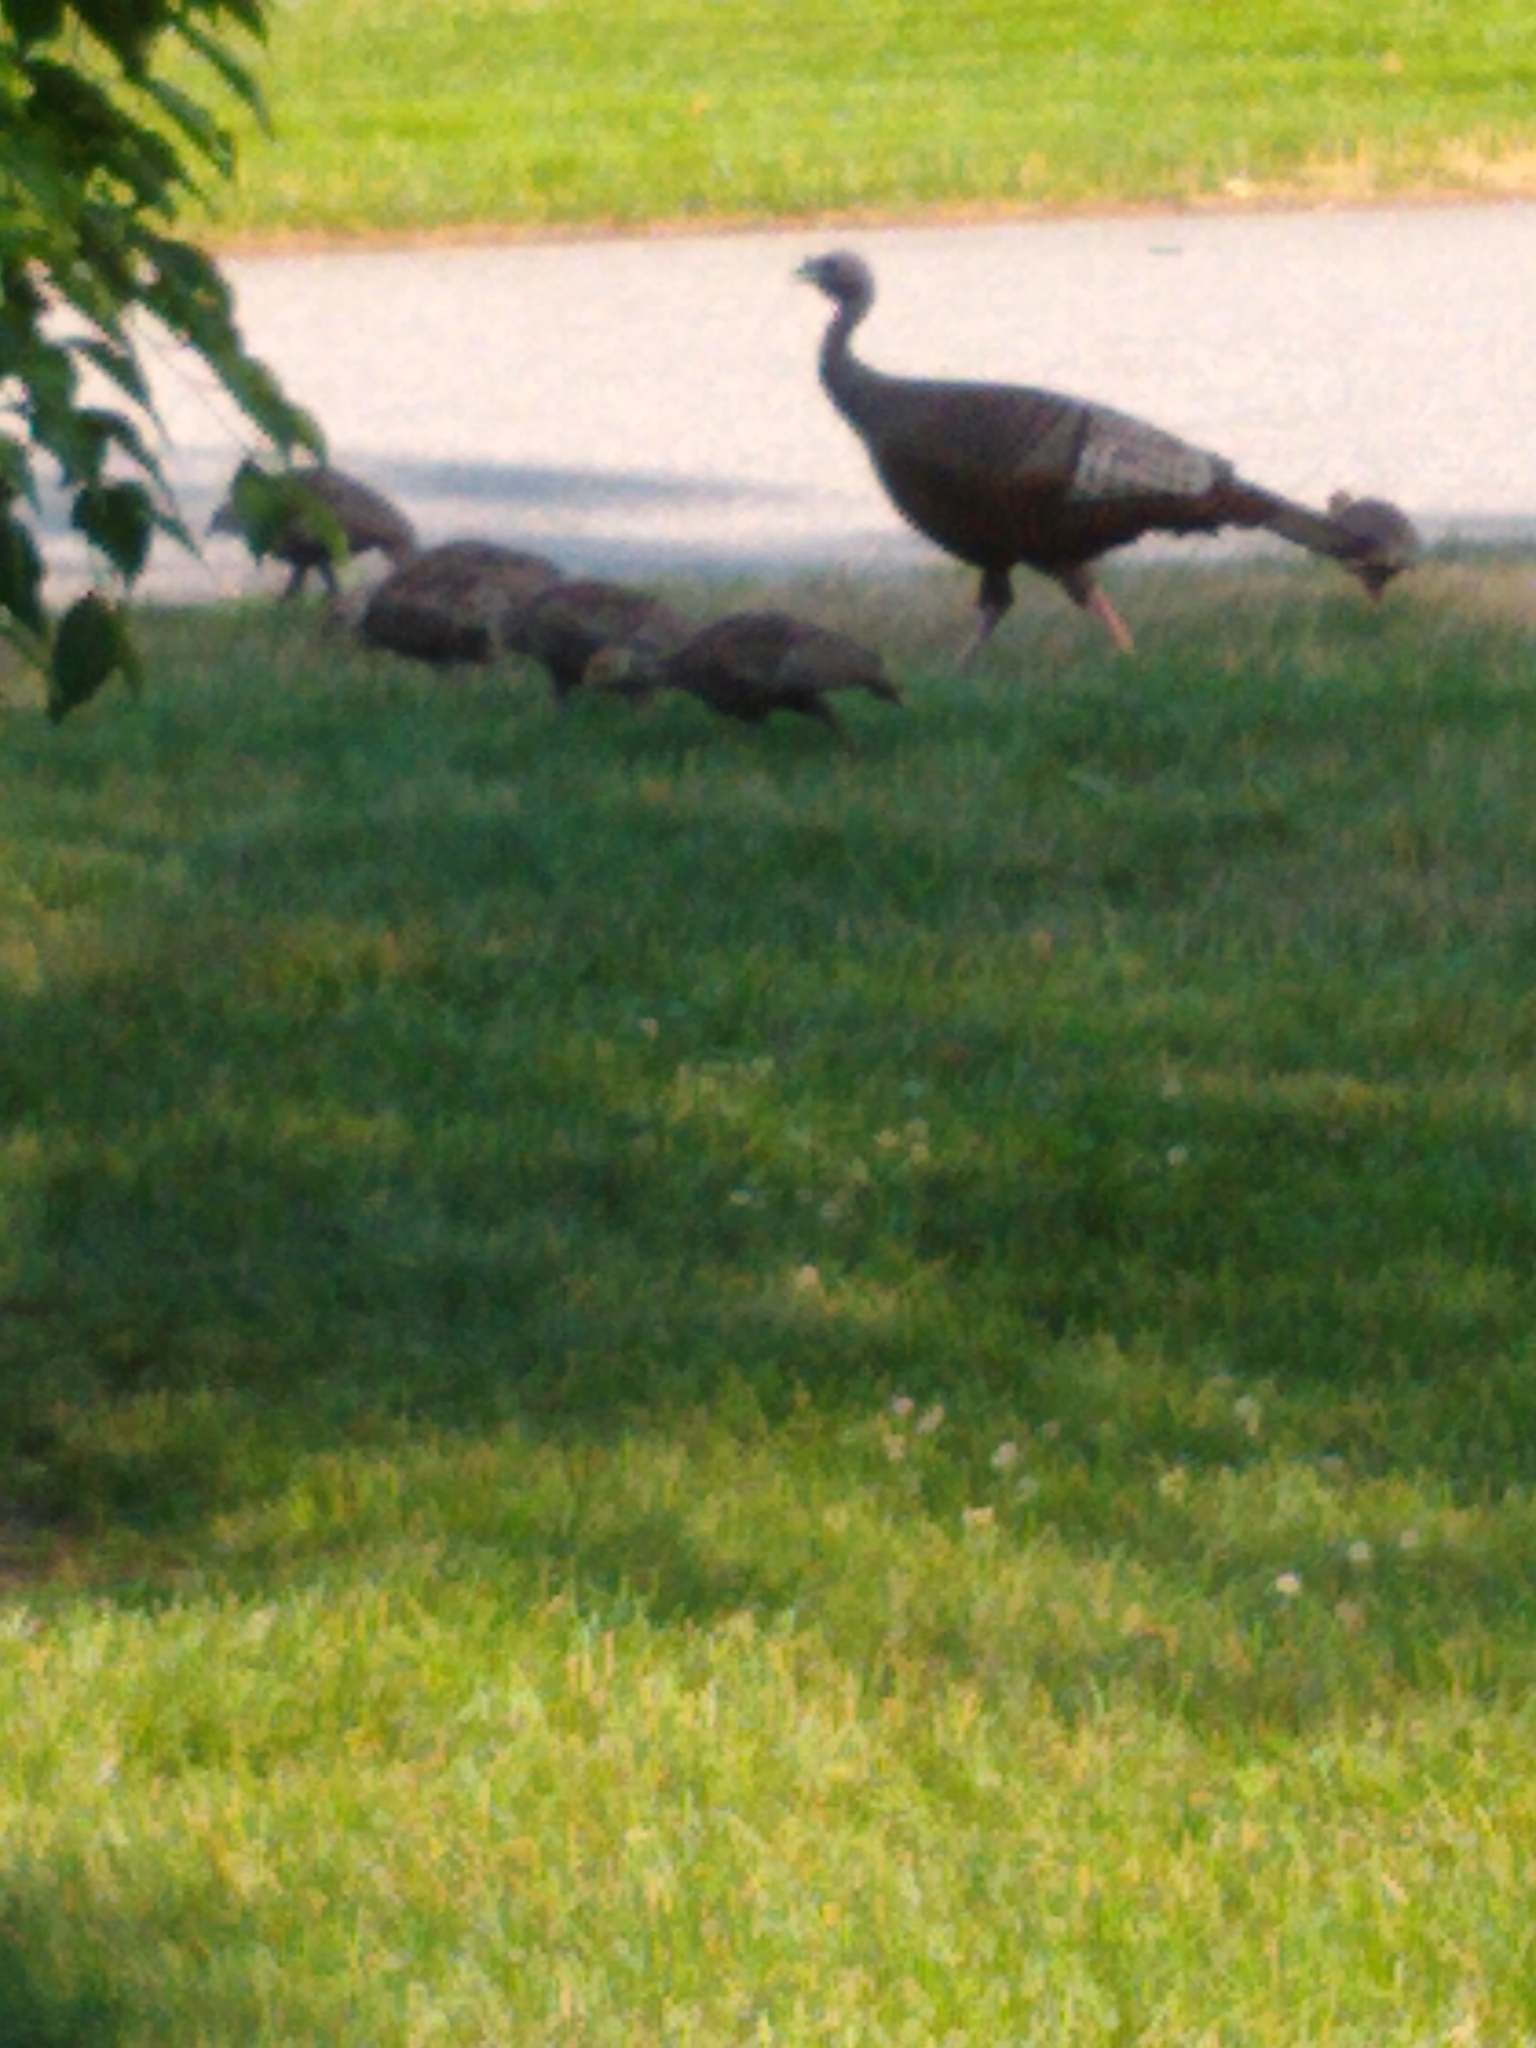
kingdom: Animalia
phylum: Chordata
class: Aves
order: Galliformes
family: Phasianidae
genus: Meleagris
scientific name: Meleagris gallopavo
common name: Wild turkey
